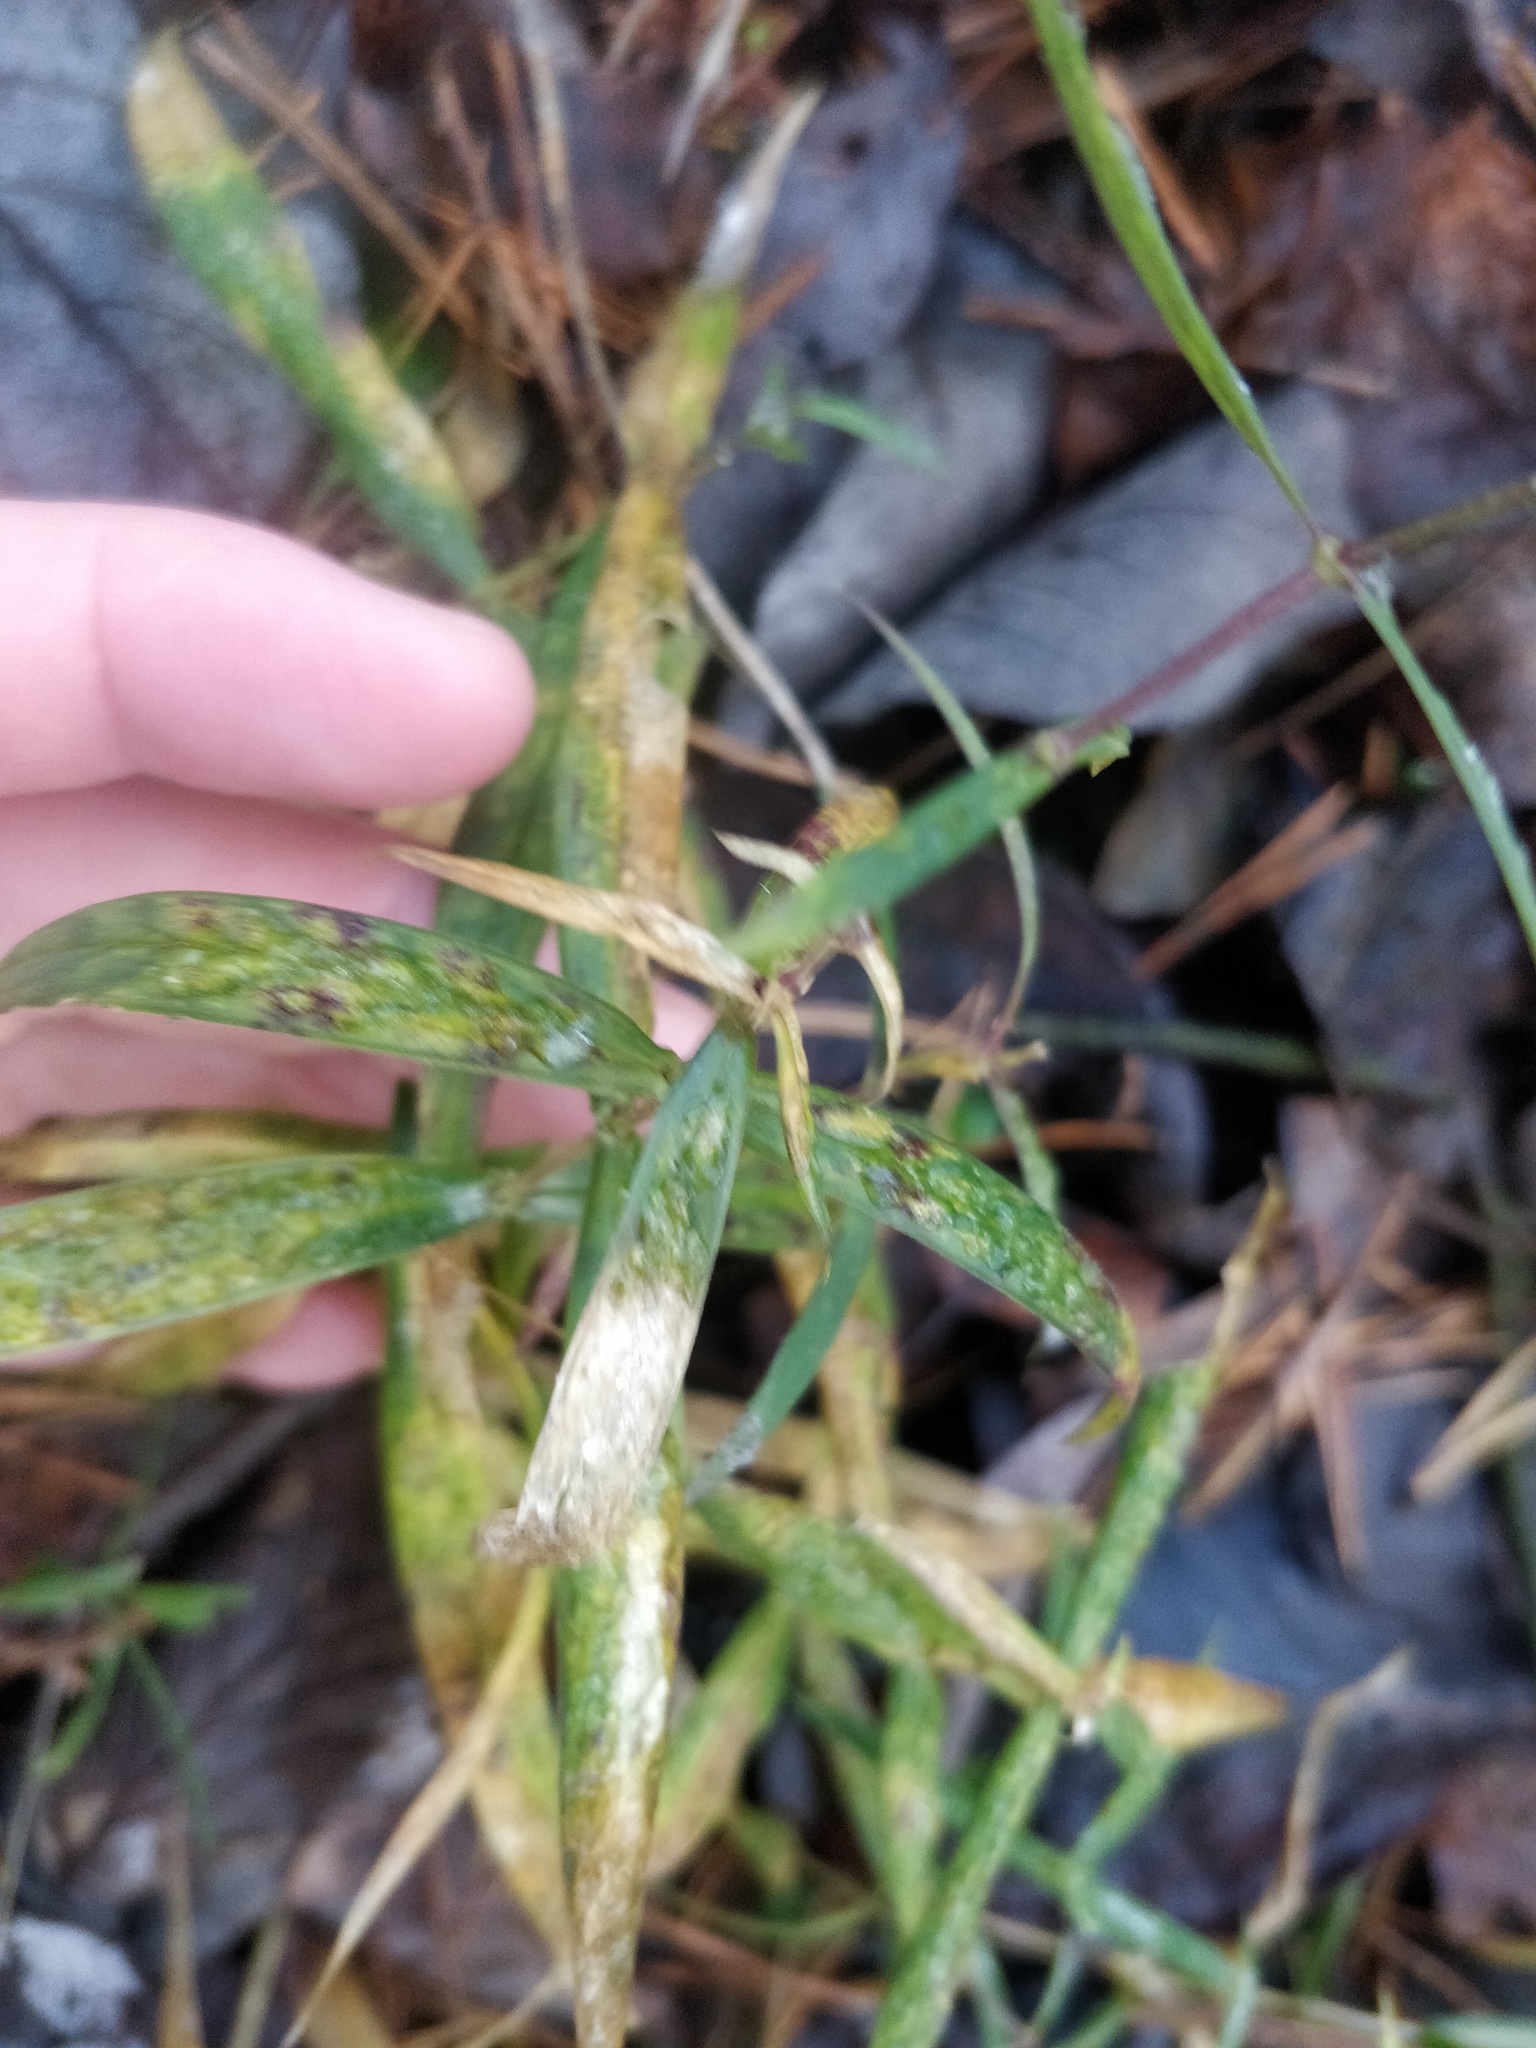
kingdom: Plantae
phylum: Tracheophyta
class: Magnoliopsida
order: Caryophyllales
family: Caryophyllaceae
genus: Rabelera
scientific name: Rabelera holostea
